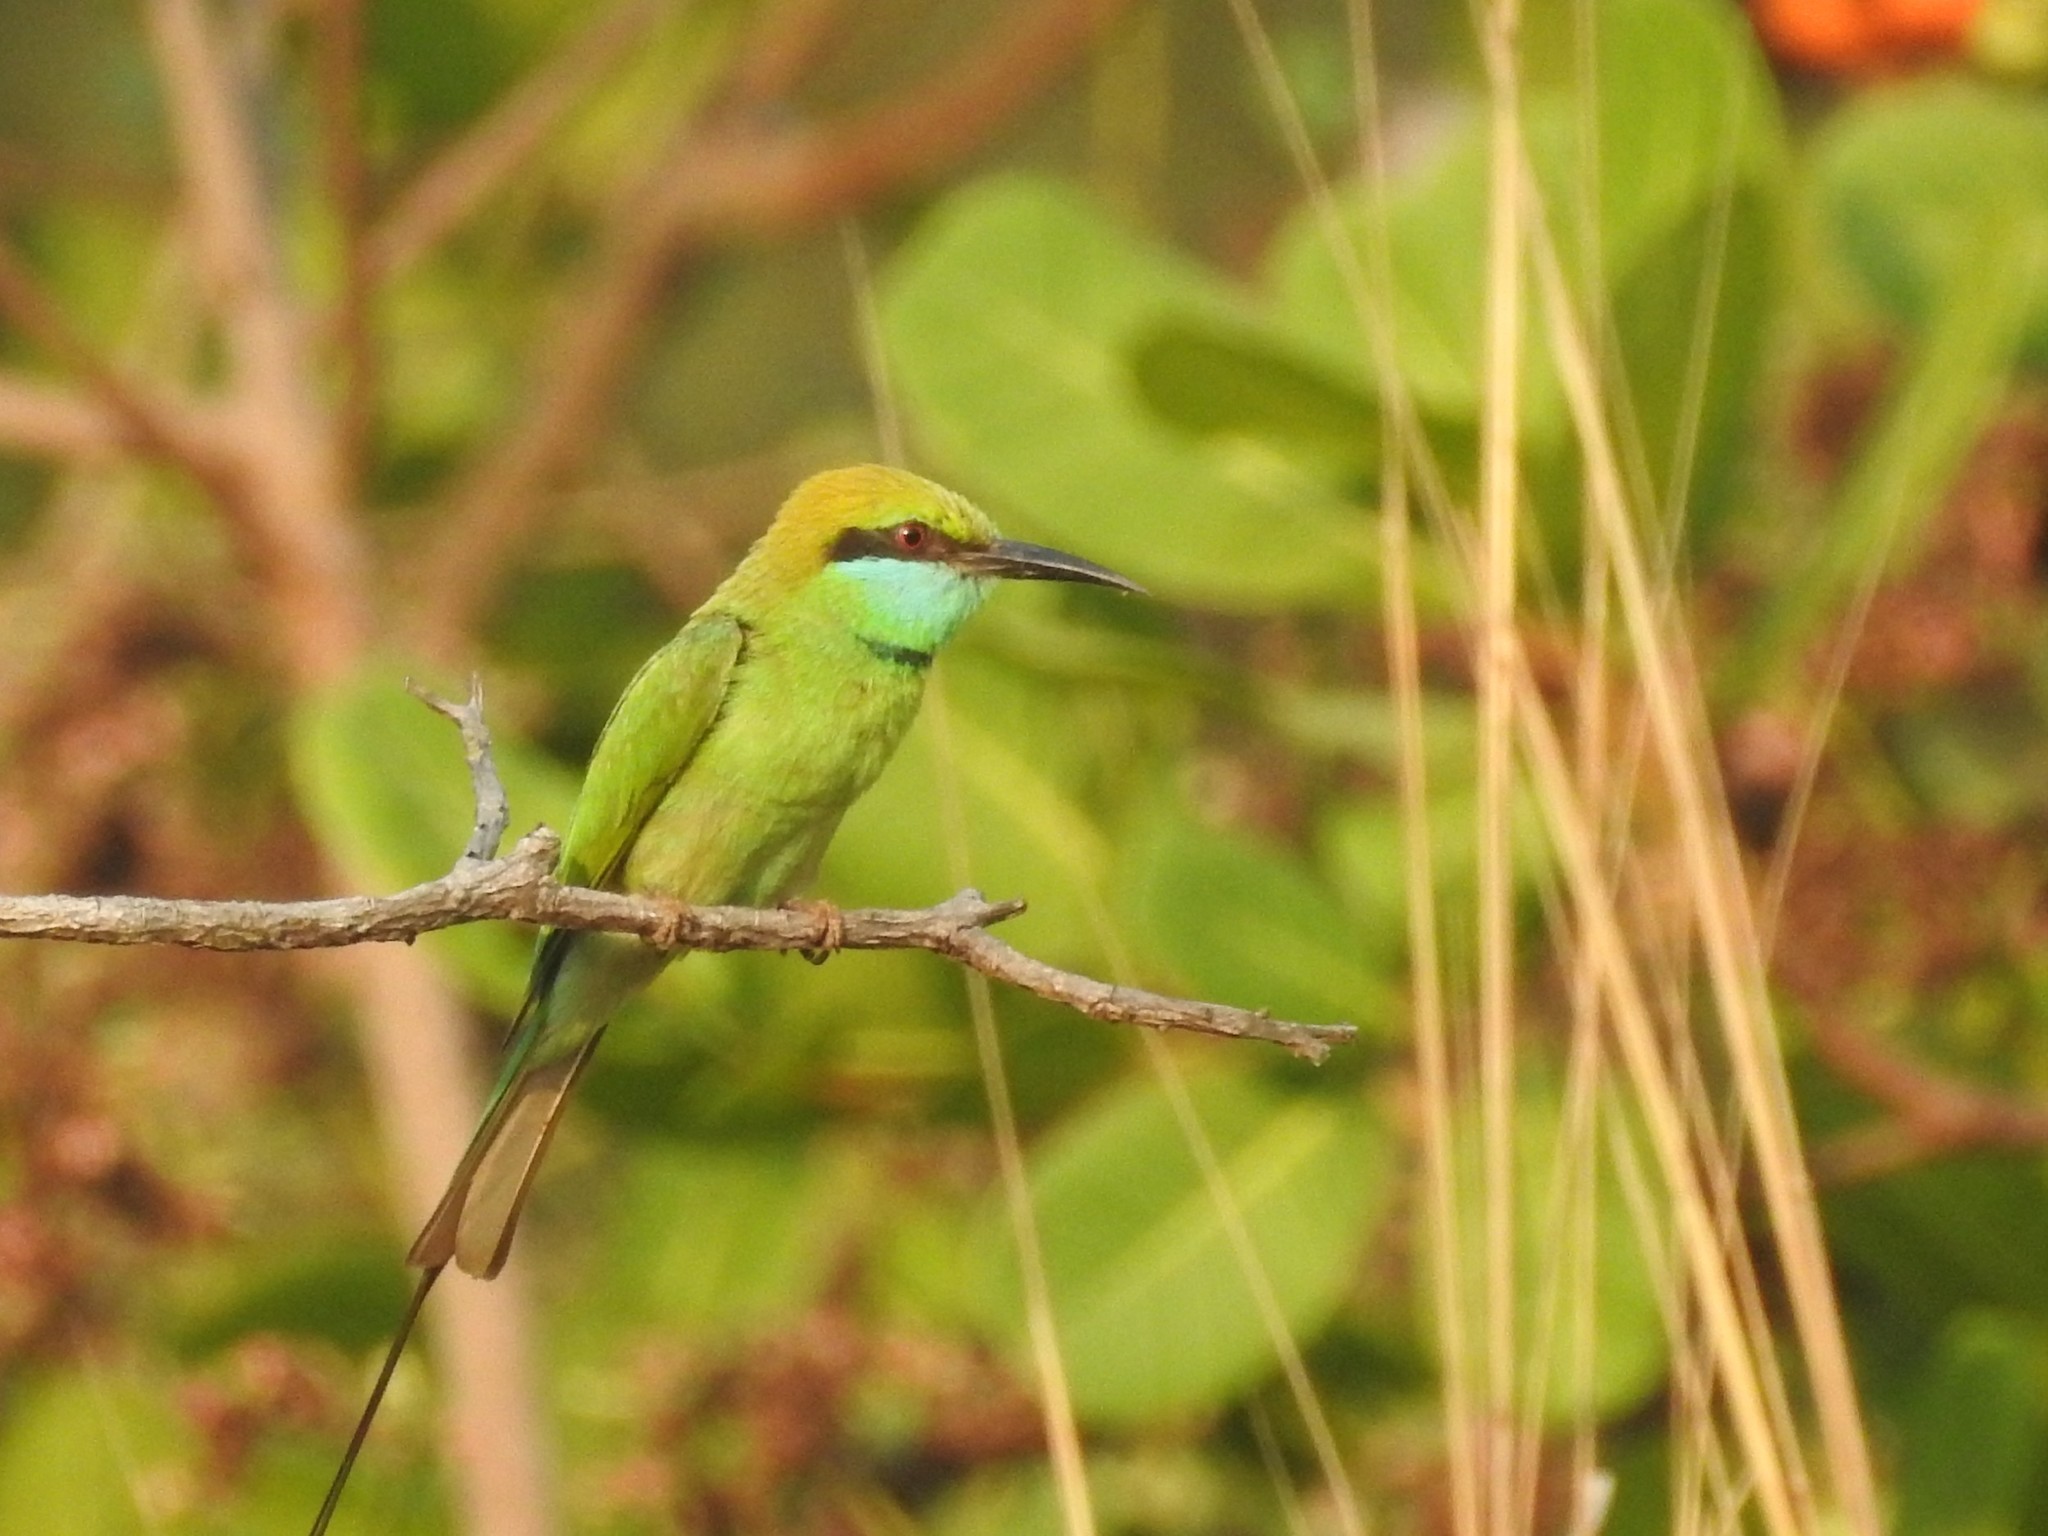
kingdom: Animalia
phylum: Chordata
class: Aves
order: Coraciiformes
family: Meropidae
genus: Merops
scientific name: Merops orientalis
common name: Green bee-eater
